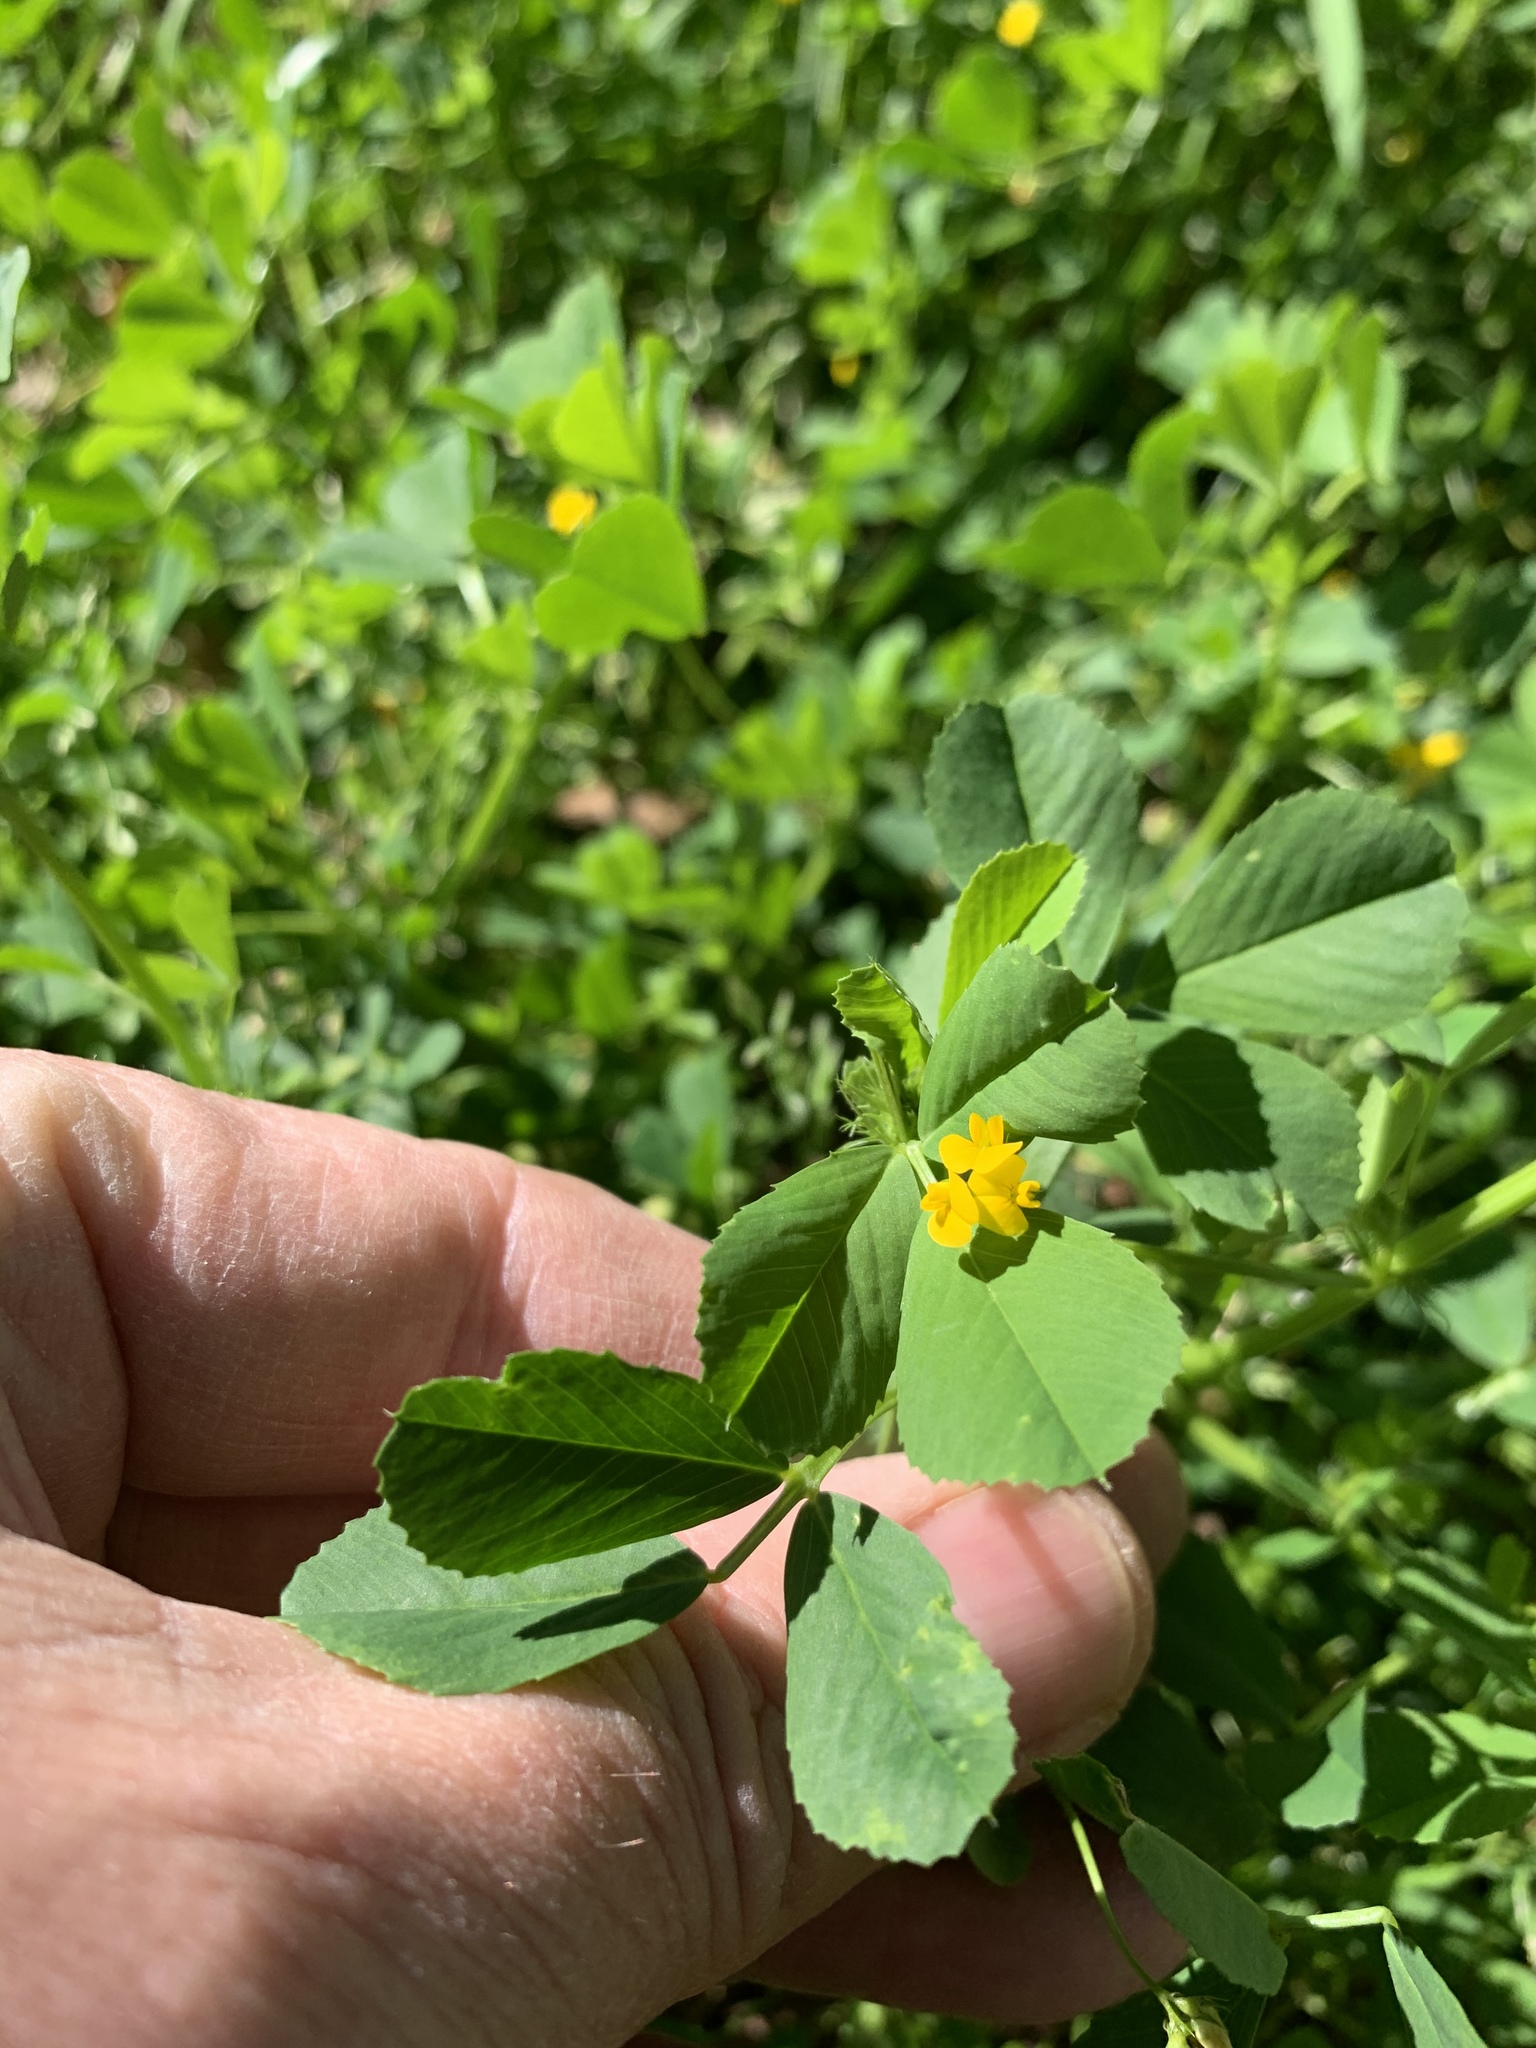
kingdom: Plantae
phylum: Tracheophyta
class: Magnoliopsida
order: Fabales
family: Fabaceae
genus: Medicago
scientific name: Medicago polymorpha
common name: Burclover
